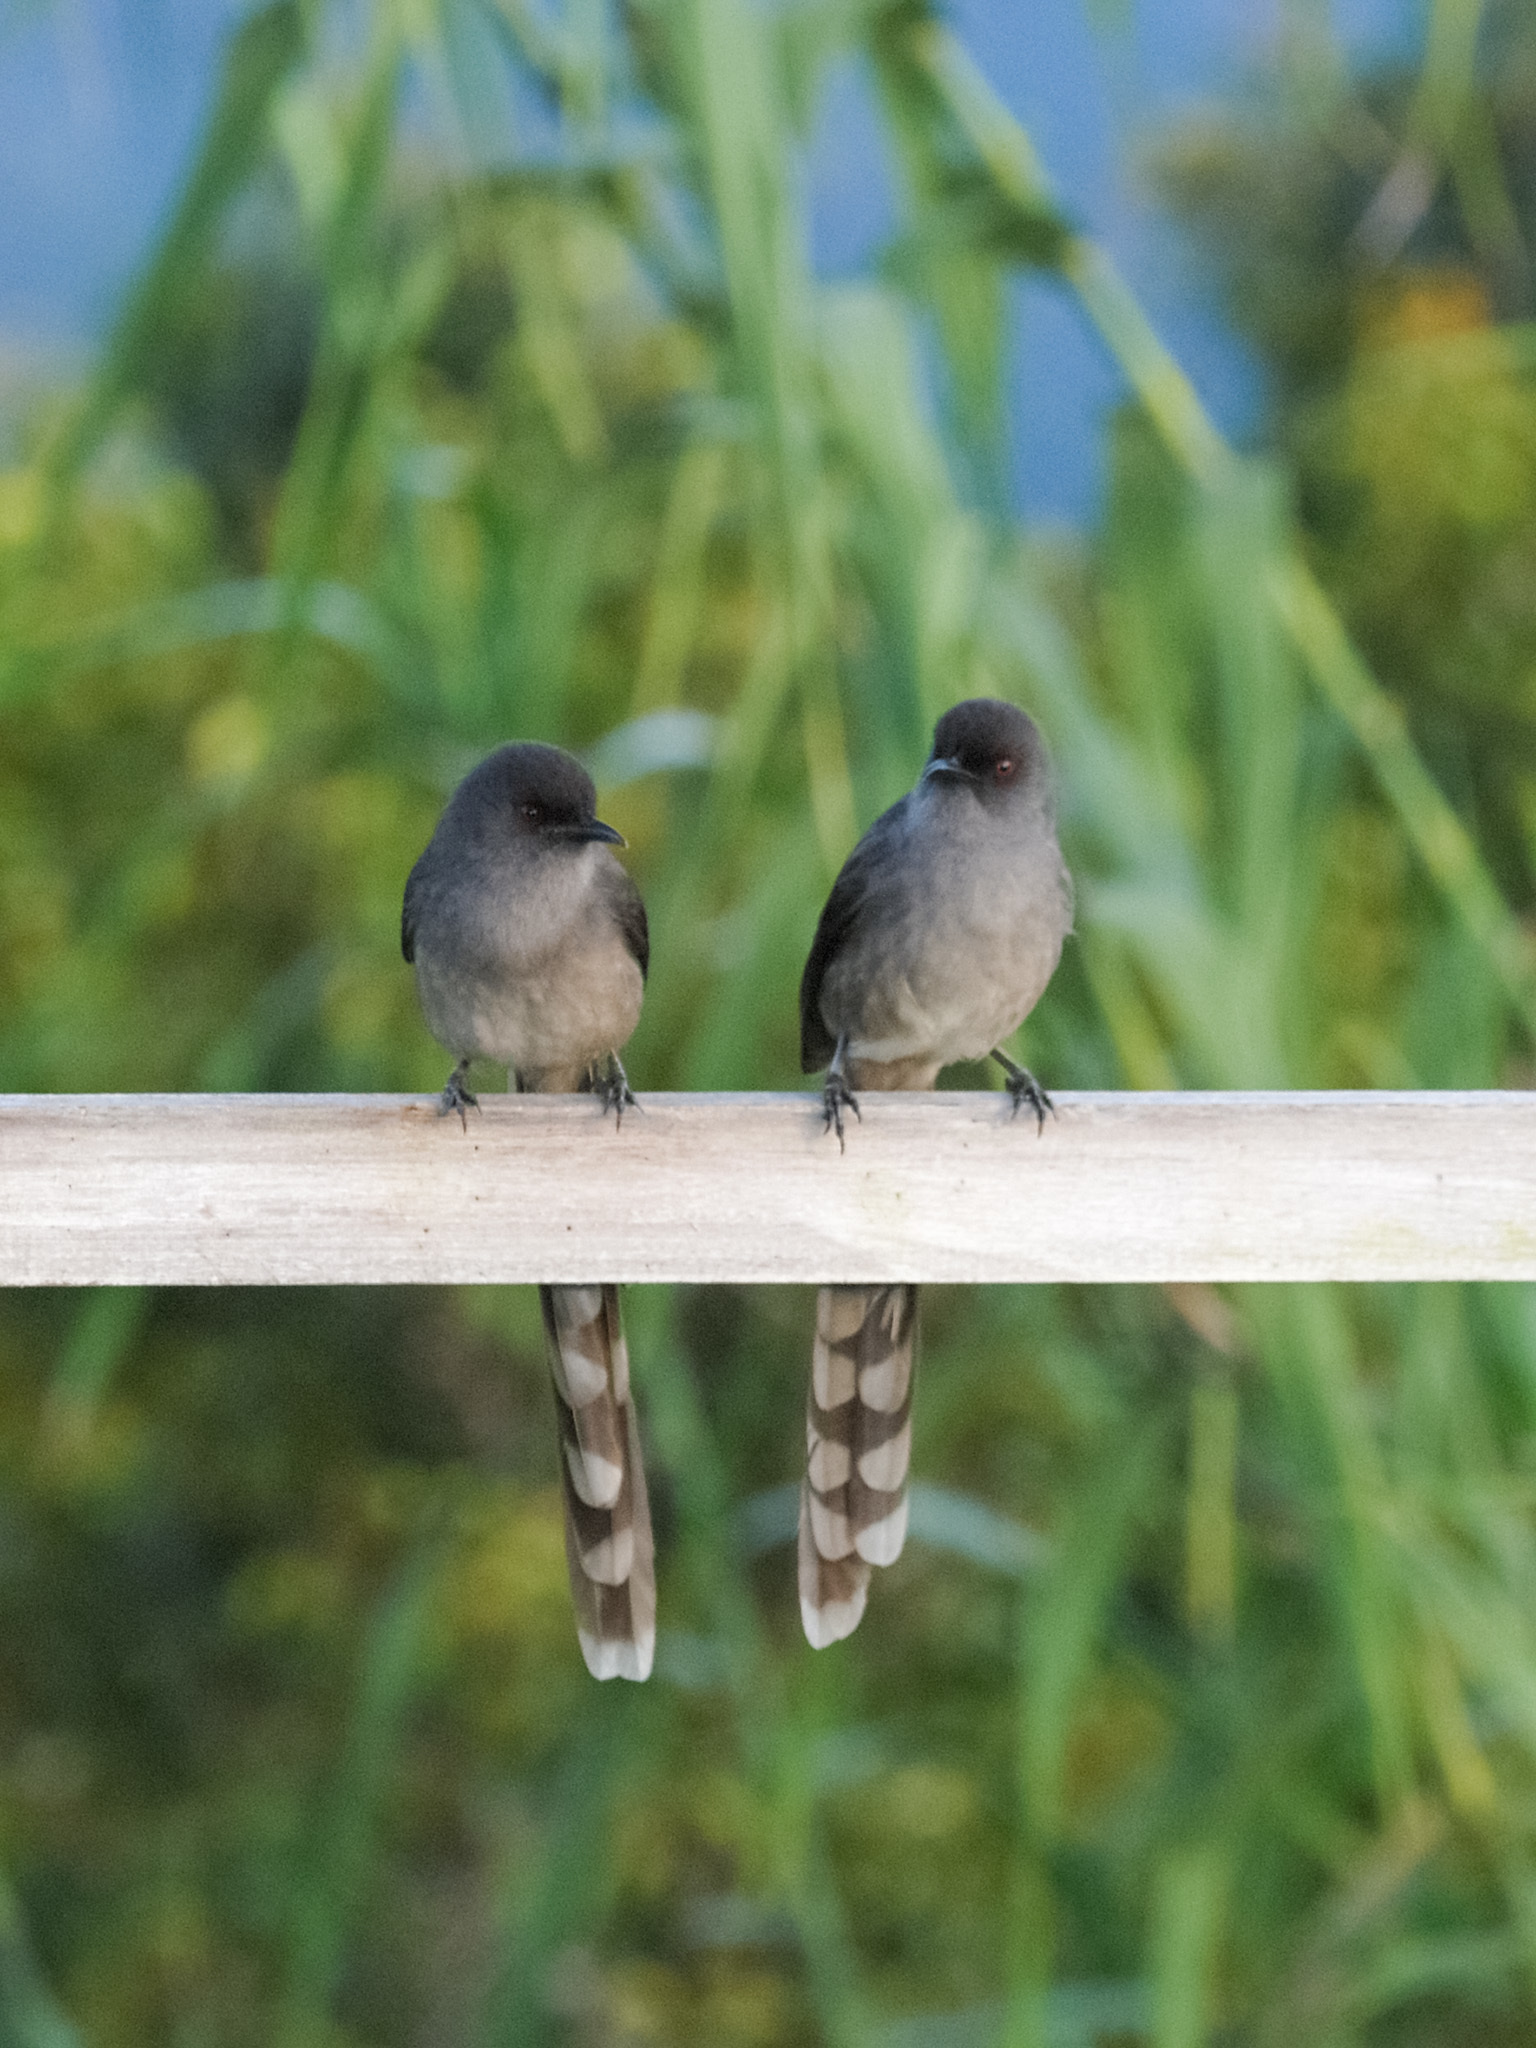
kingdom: Animalia
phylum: Chordata
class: Aves
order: Passeriformes
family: Leiothrichidae
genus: Heterophasia
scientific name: Heterophasia picaoides
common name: Long-tailed sibia
